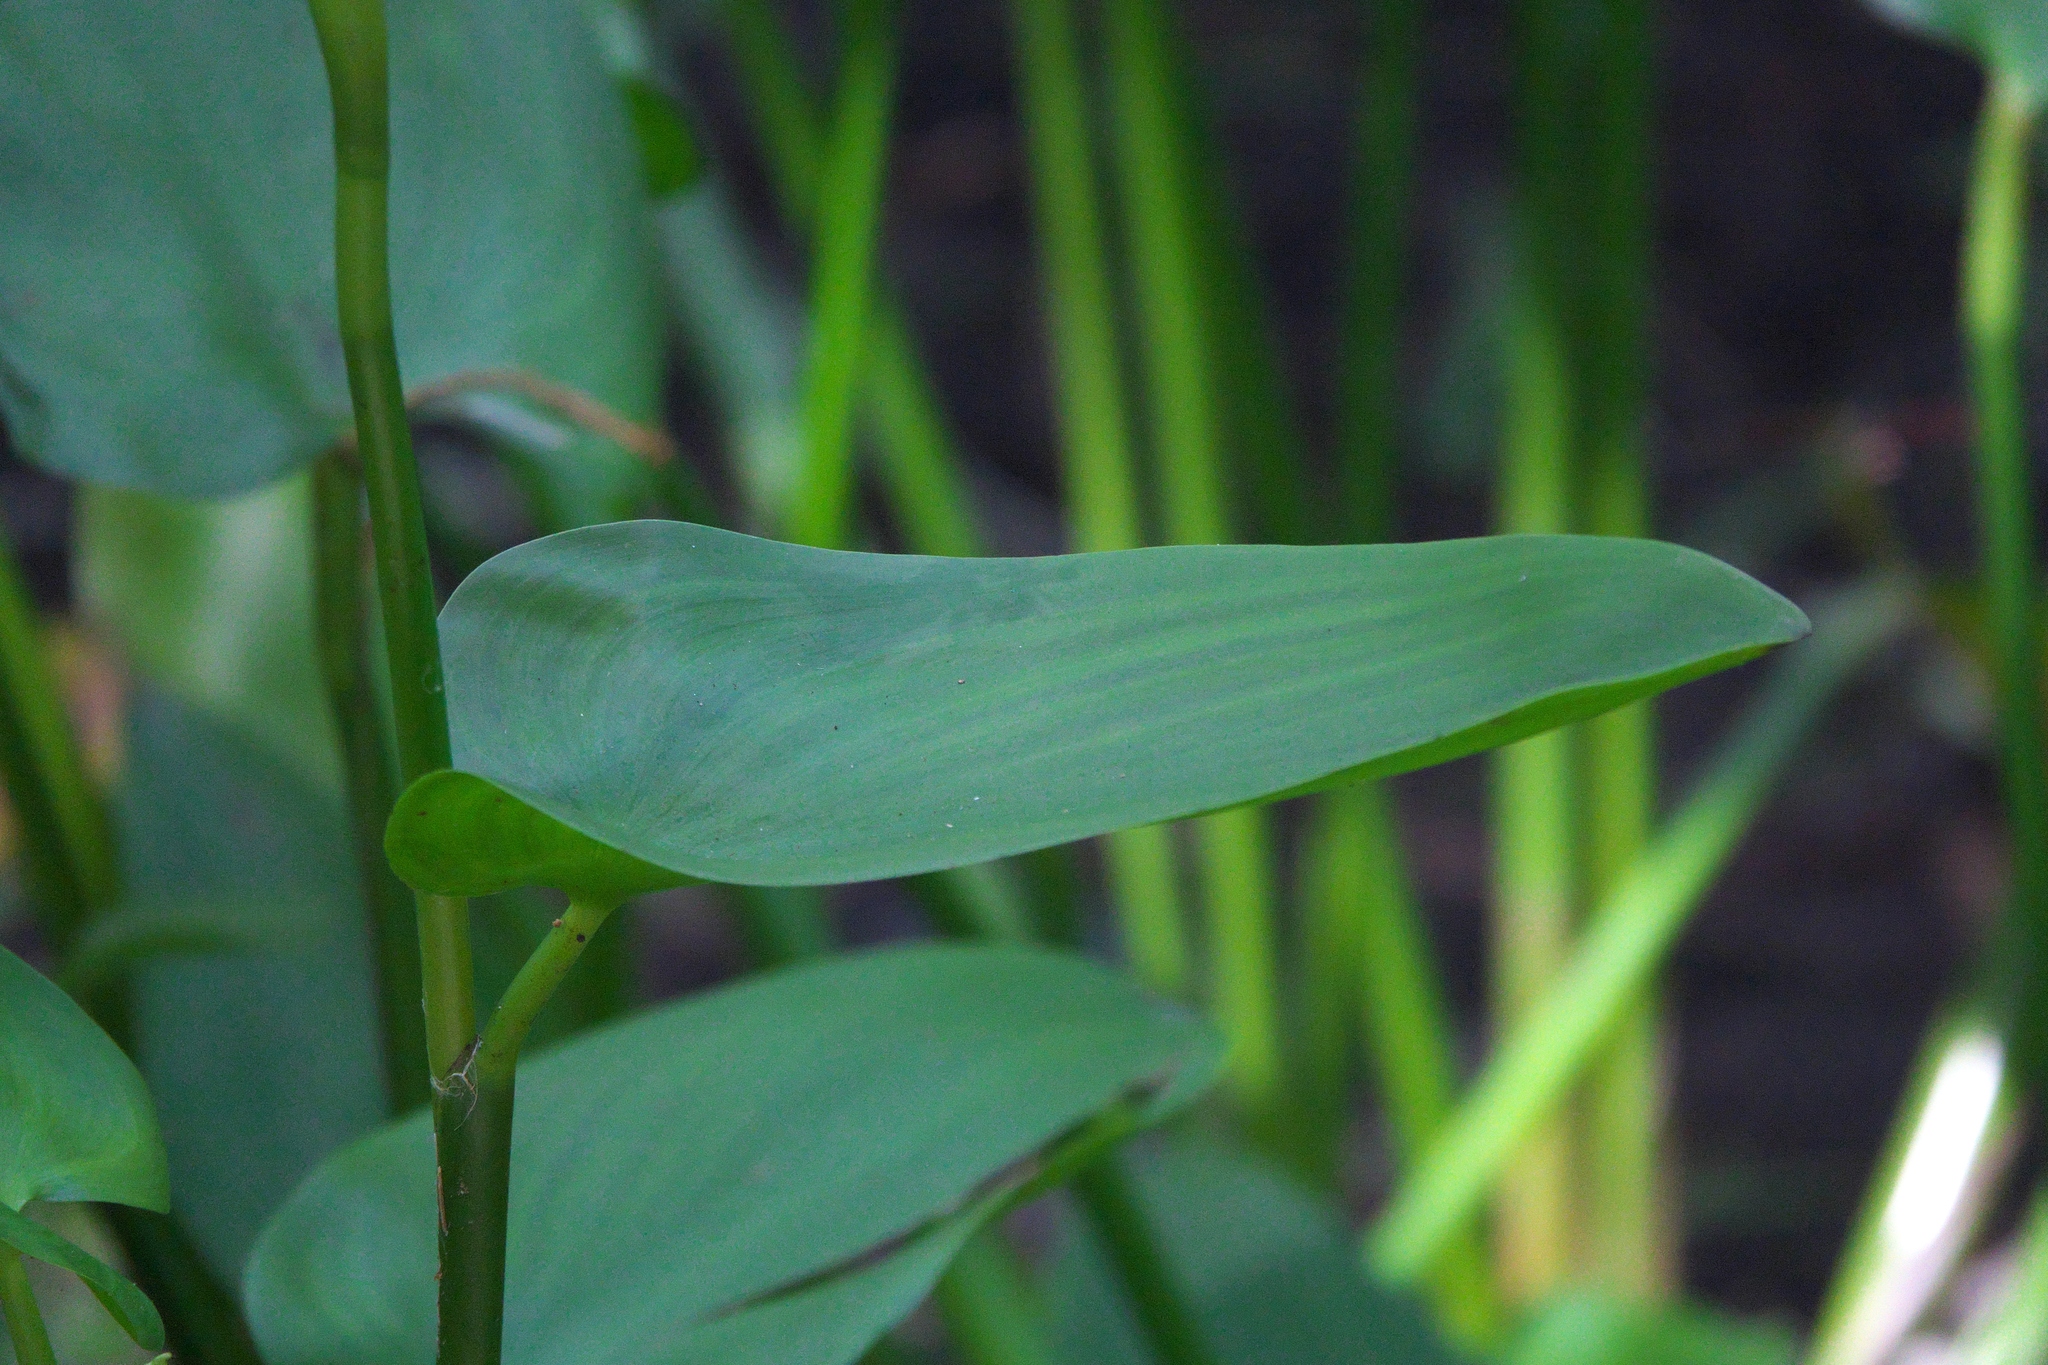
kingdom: Plantae
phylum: Tracheophyta
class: Liliopsida
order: Commelinales
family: Pontederiaceae
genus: Pontederia
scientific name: Pontederia cordata
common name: Pickerelweed
